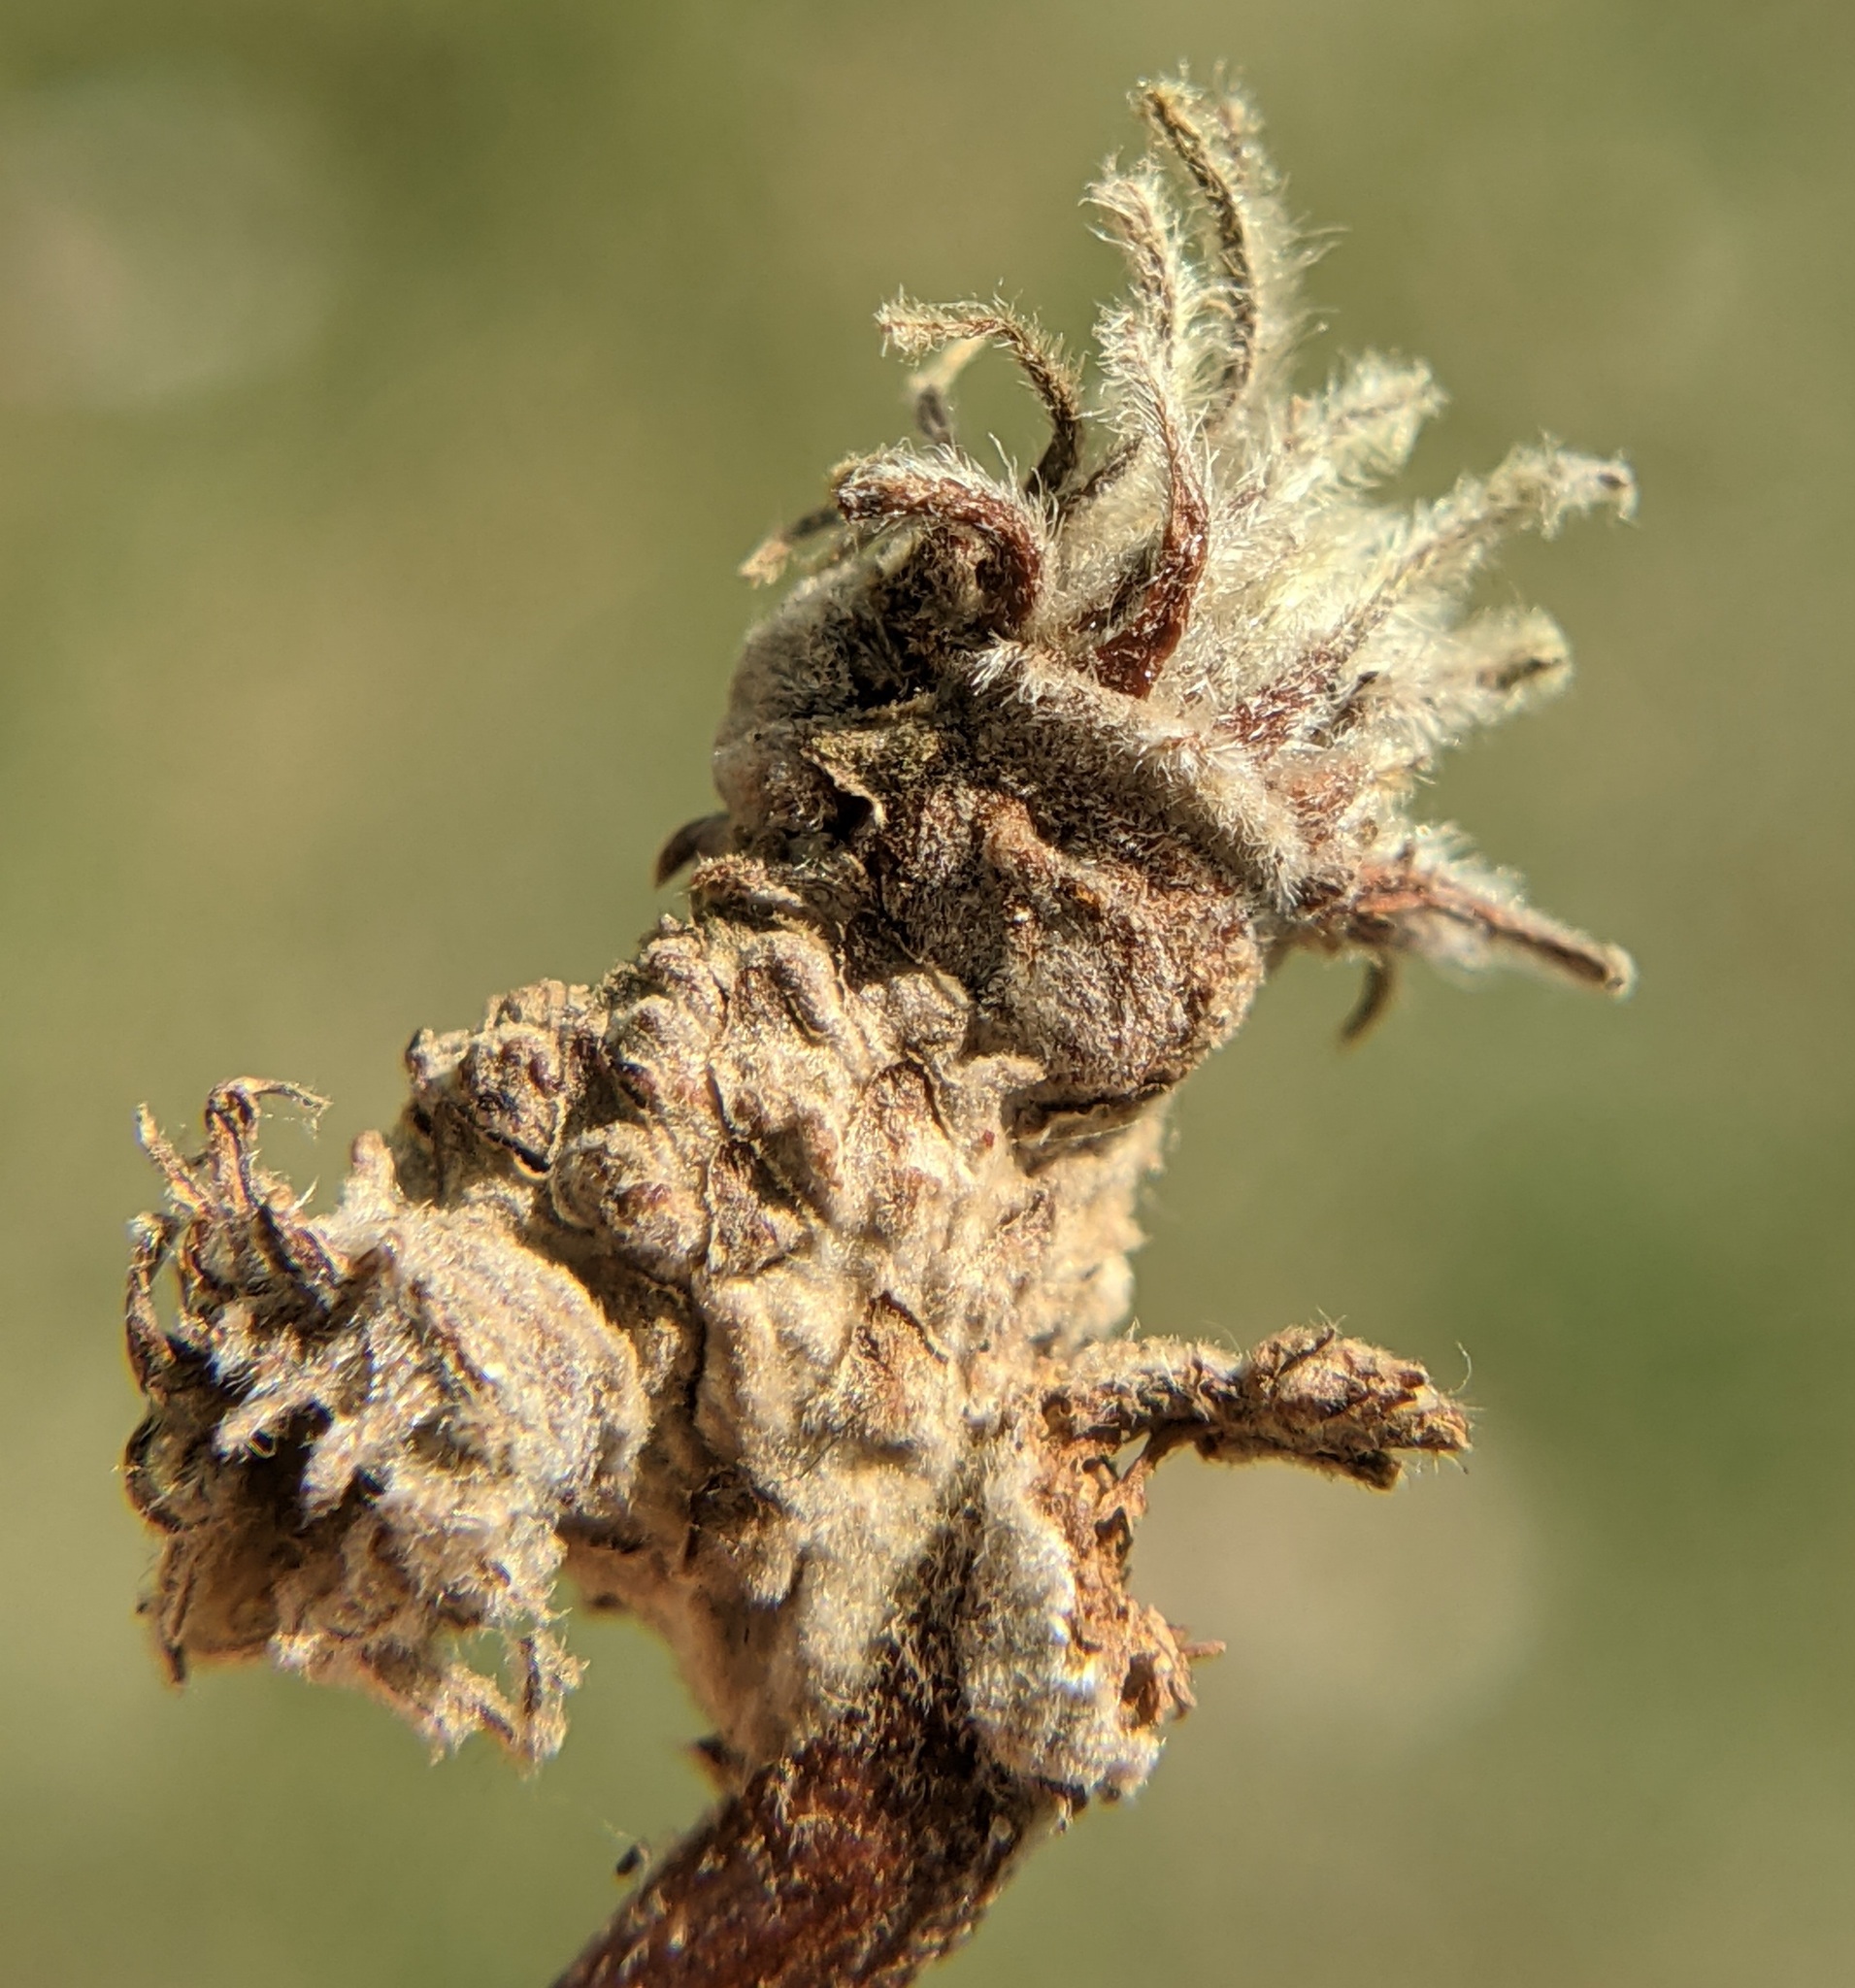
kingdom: Animalia
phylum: Arthropoda
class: Insecta
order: Hymenoptera
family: Cynipidae
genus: Andricus
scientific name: Andricus
